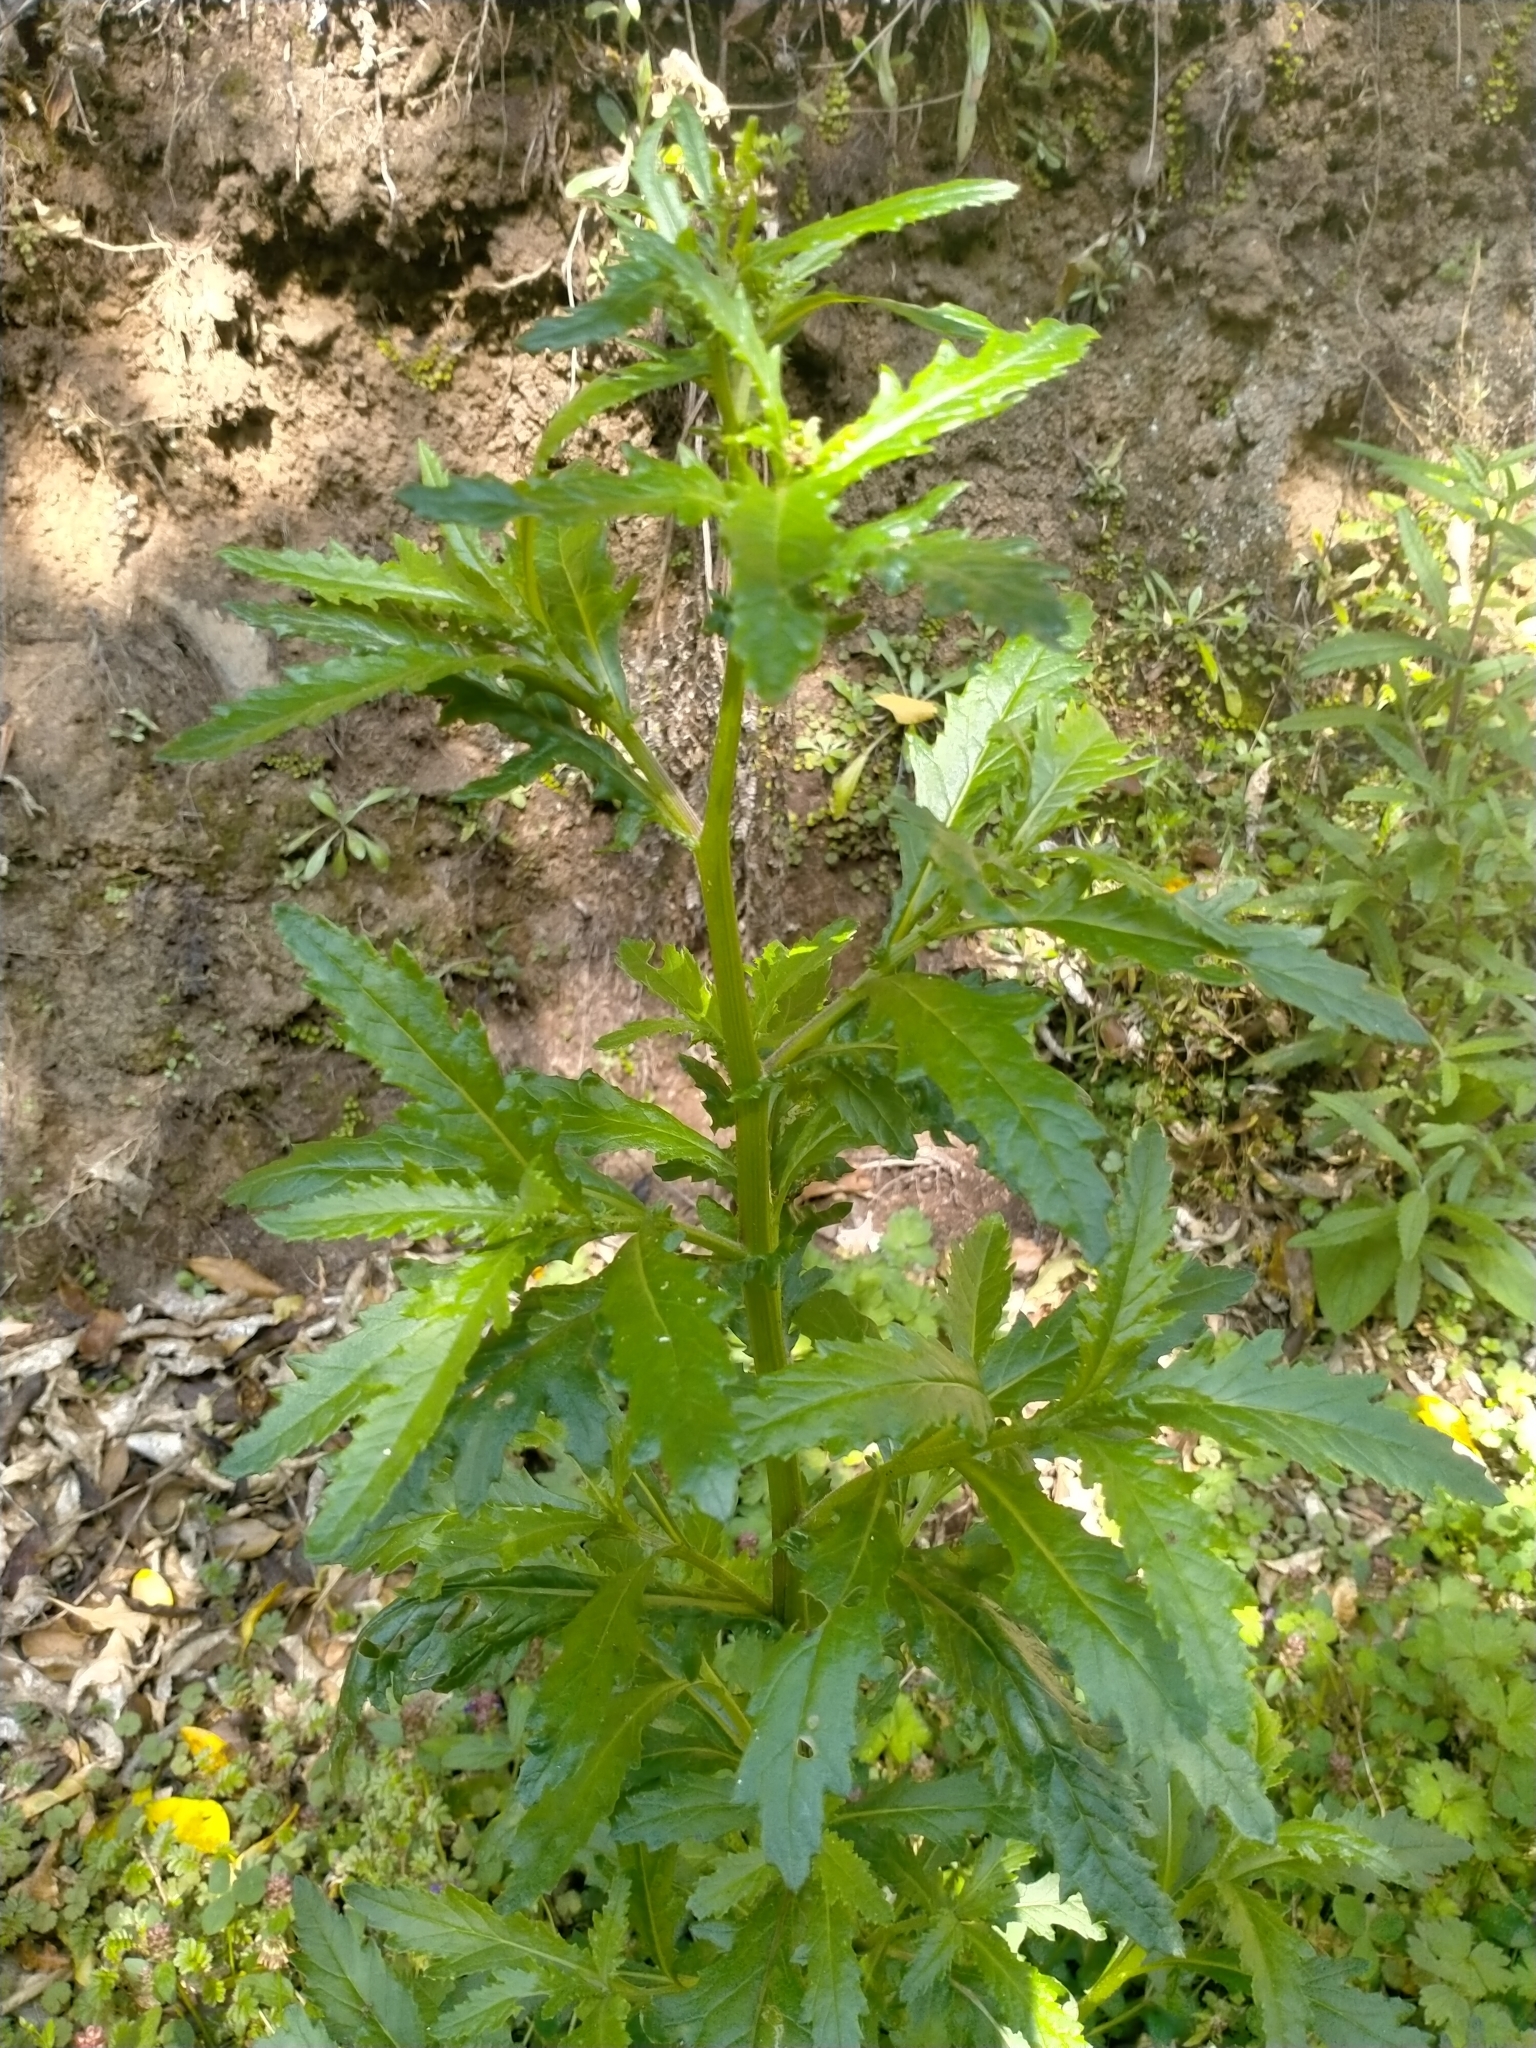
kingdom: Plantae
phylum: Tracheophyta
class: Magnoliopsida
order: Asterales
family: Asteraceae
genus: Senecio
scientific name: Senecio biserratus
